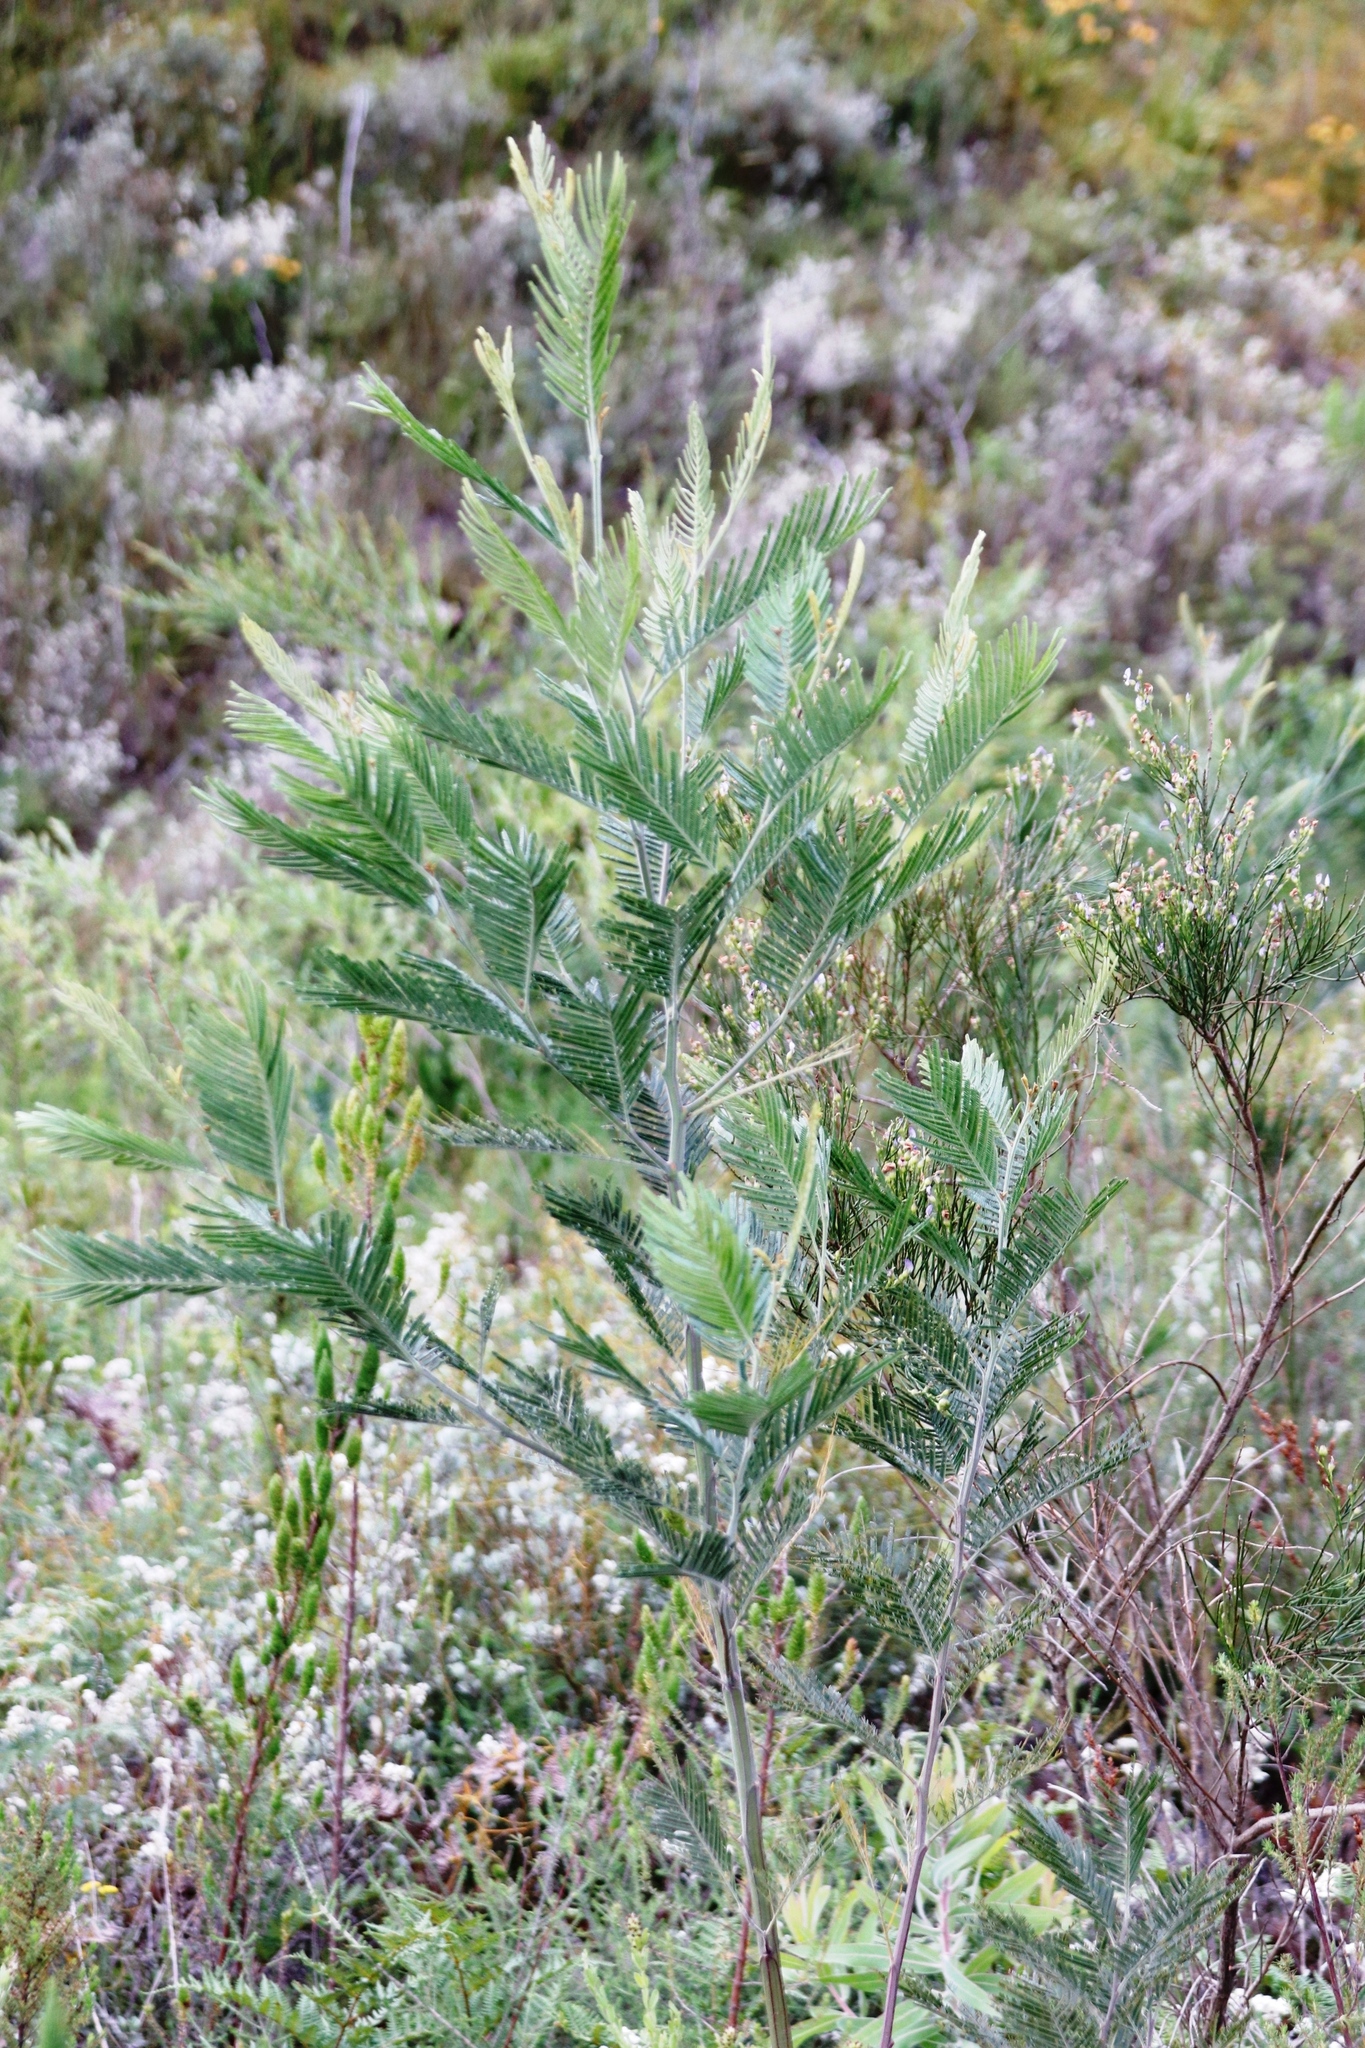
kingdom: Plantae
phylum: Tracheophyta
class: Magnoliopsida
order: Fabales
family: Fabaceae
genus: Acacia
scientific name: Acacia mearnsii
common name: Black wattle
